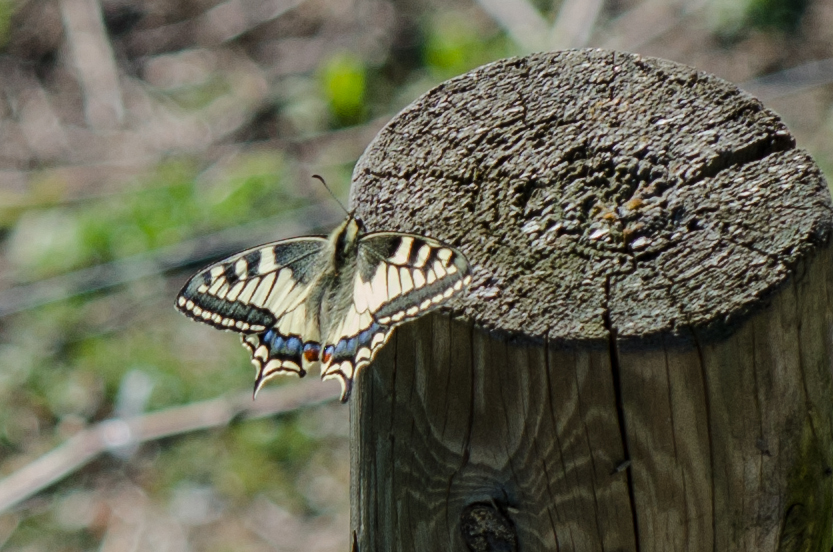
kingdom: Animalia
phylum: Arthropoda
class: Insecta
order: Lepidoptera
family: Papilionidae
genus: Papilio
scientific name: Papilio machaon
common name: Swallowtail
